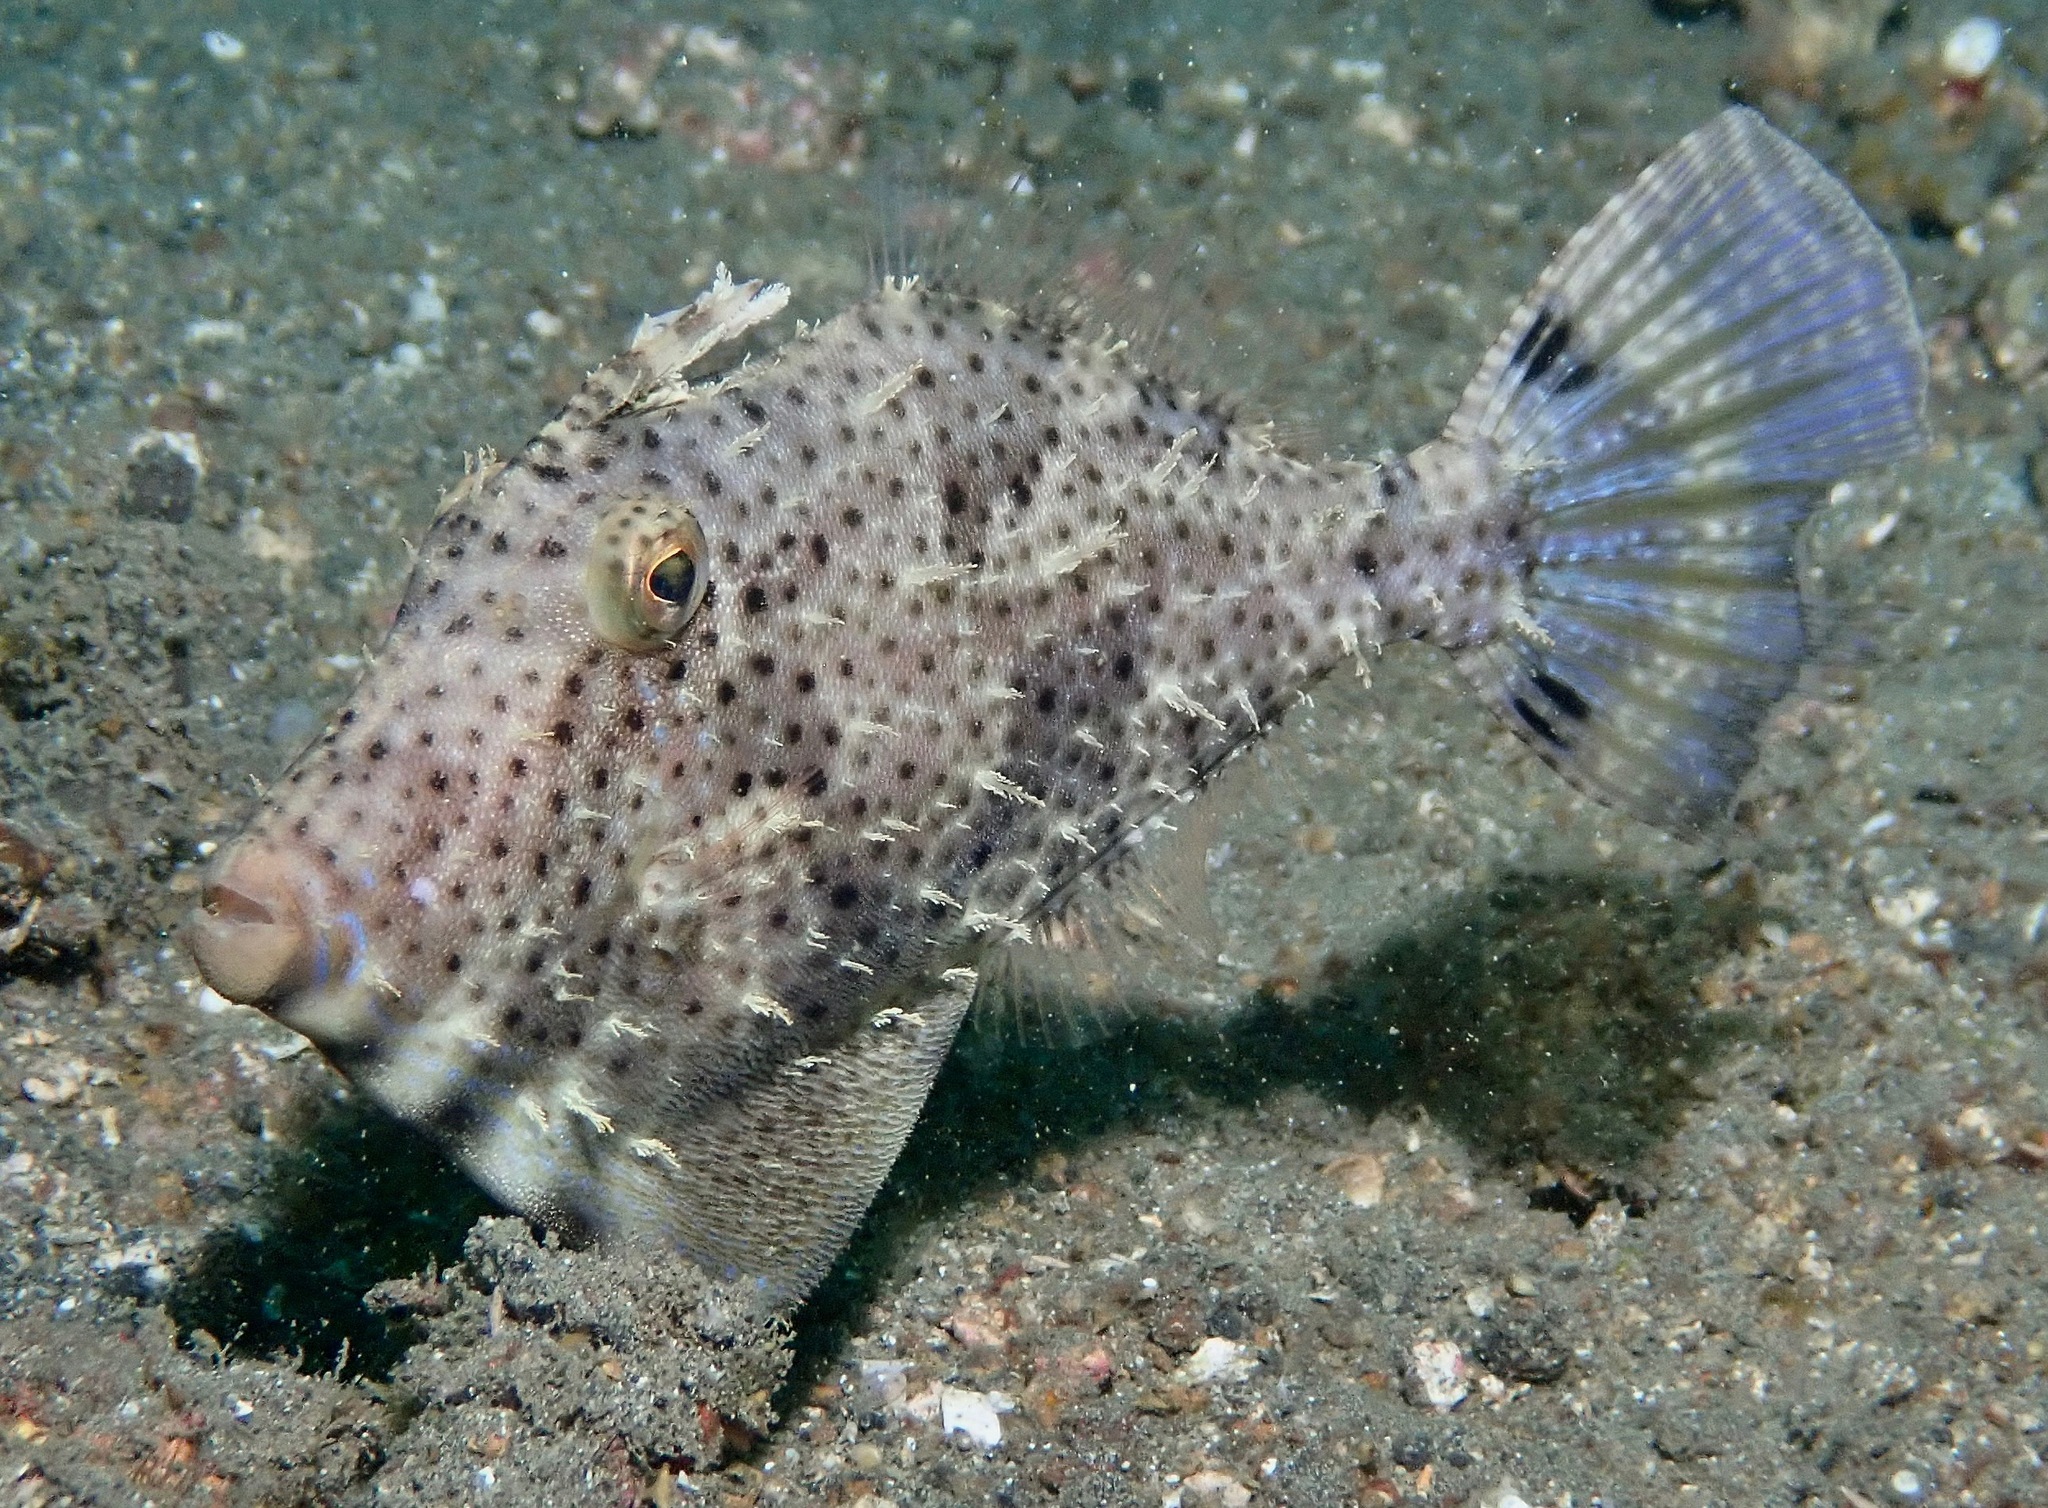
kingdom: Animalia
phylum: Chordata
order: Tetraodontiformes
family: Monacanthidae
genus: Pseudomonacanthus
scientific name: Pseudomonacanthus macrurus
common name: Blotchy filefish
